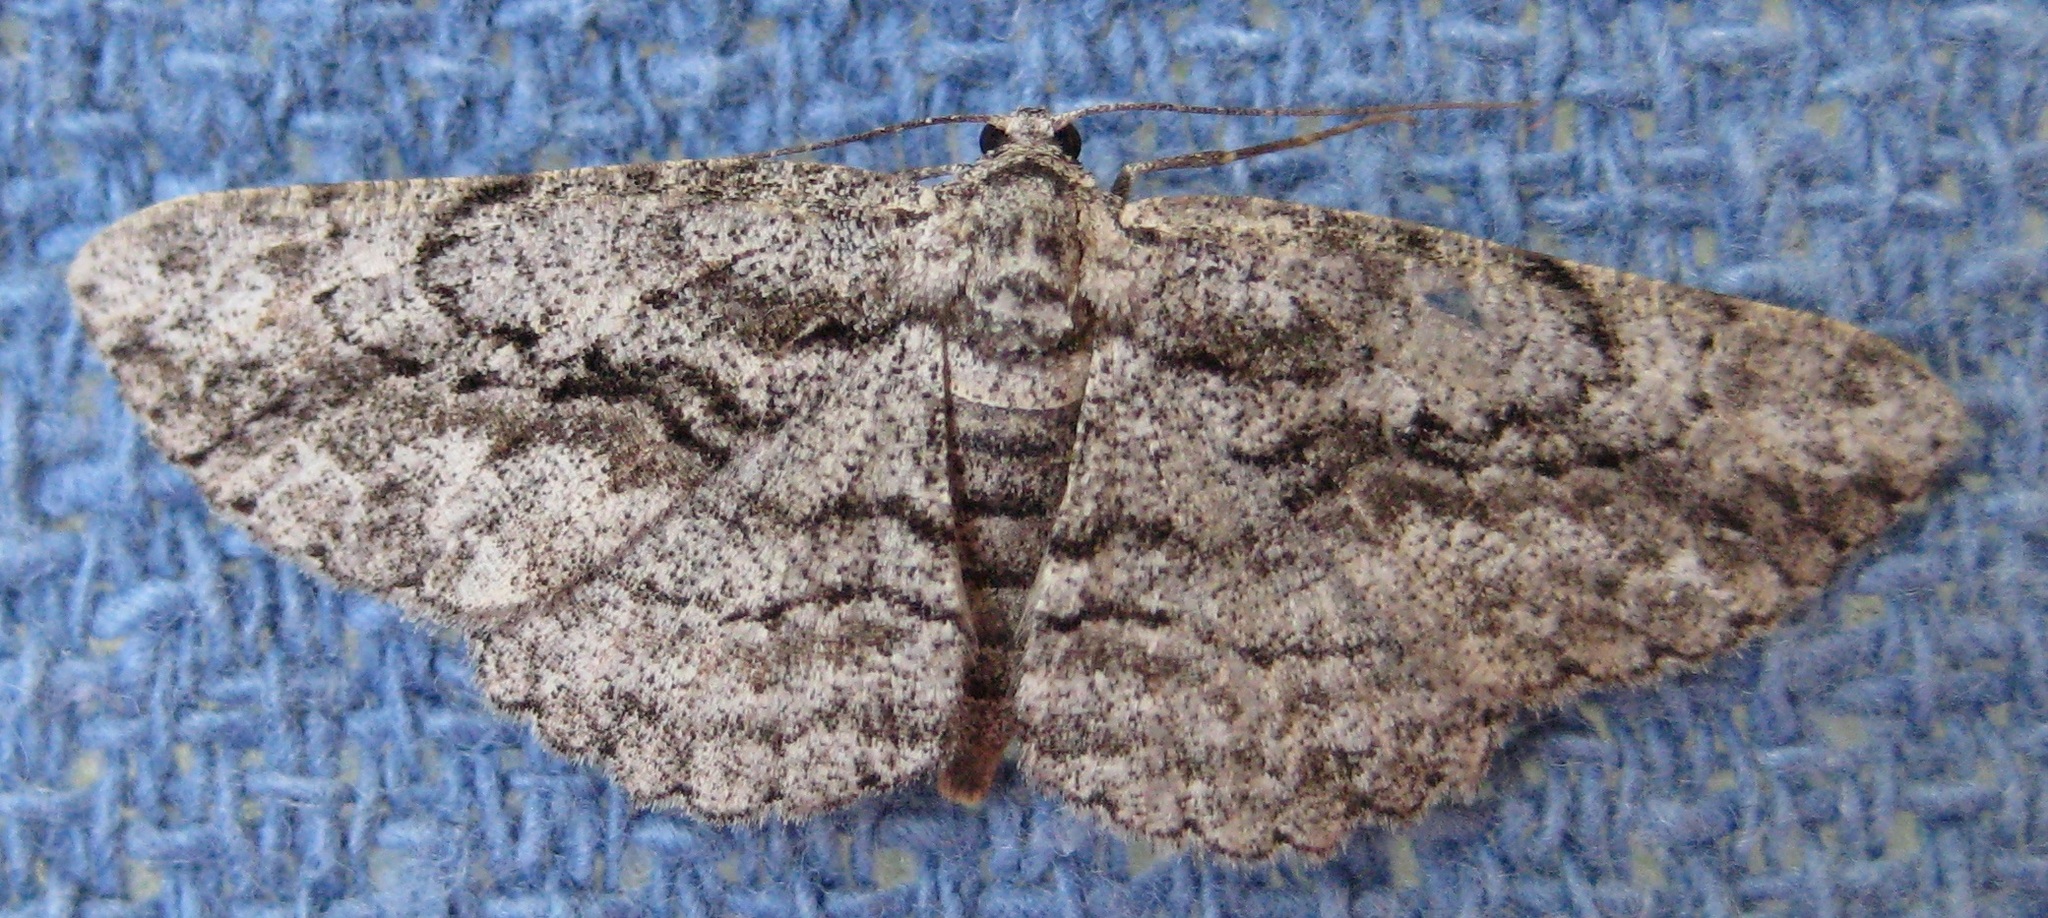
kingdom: Animalia
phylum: Arthropoda
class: Insecta
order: Lepidoptera
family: Geometridae
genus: Anavitrinella
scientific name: Anavitrinella pampinaria
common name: Common gray
